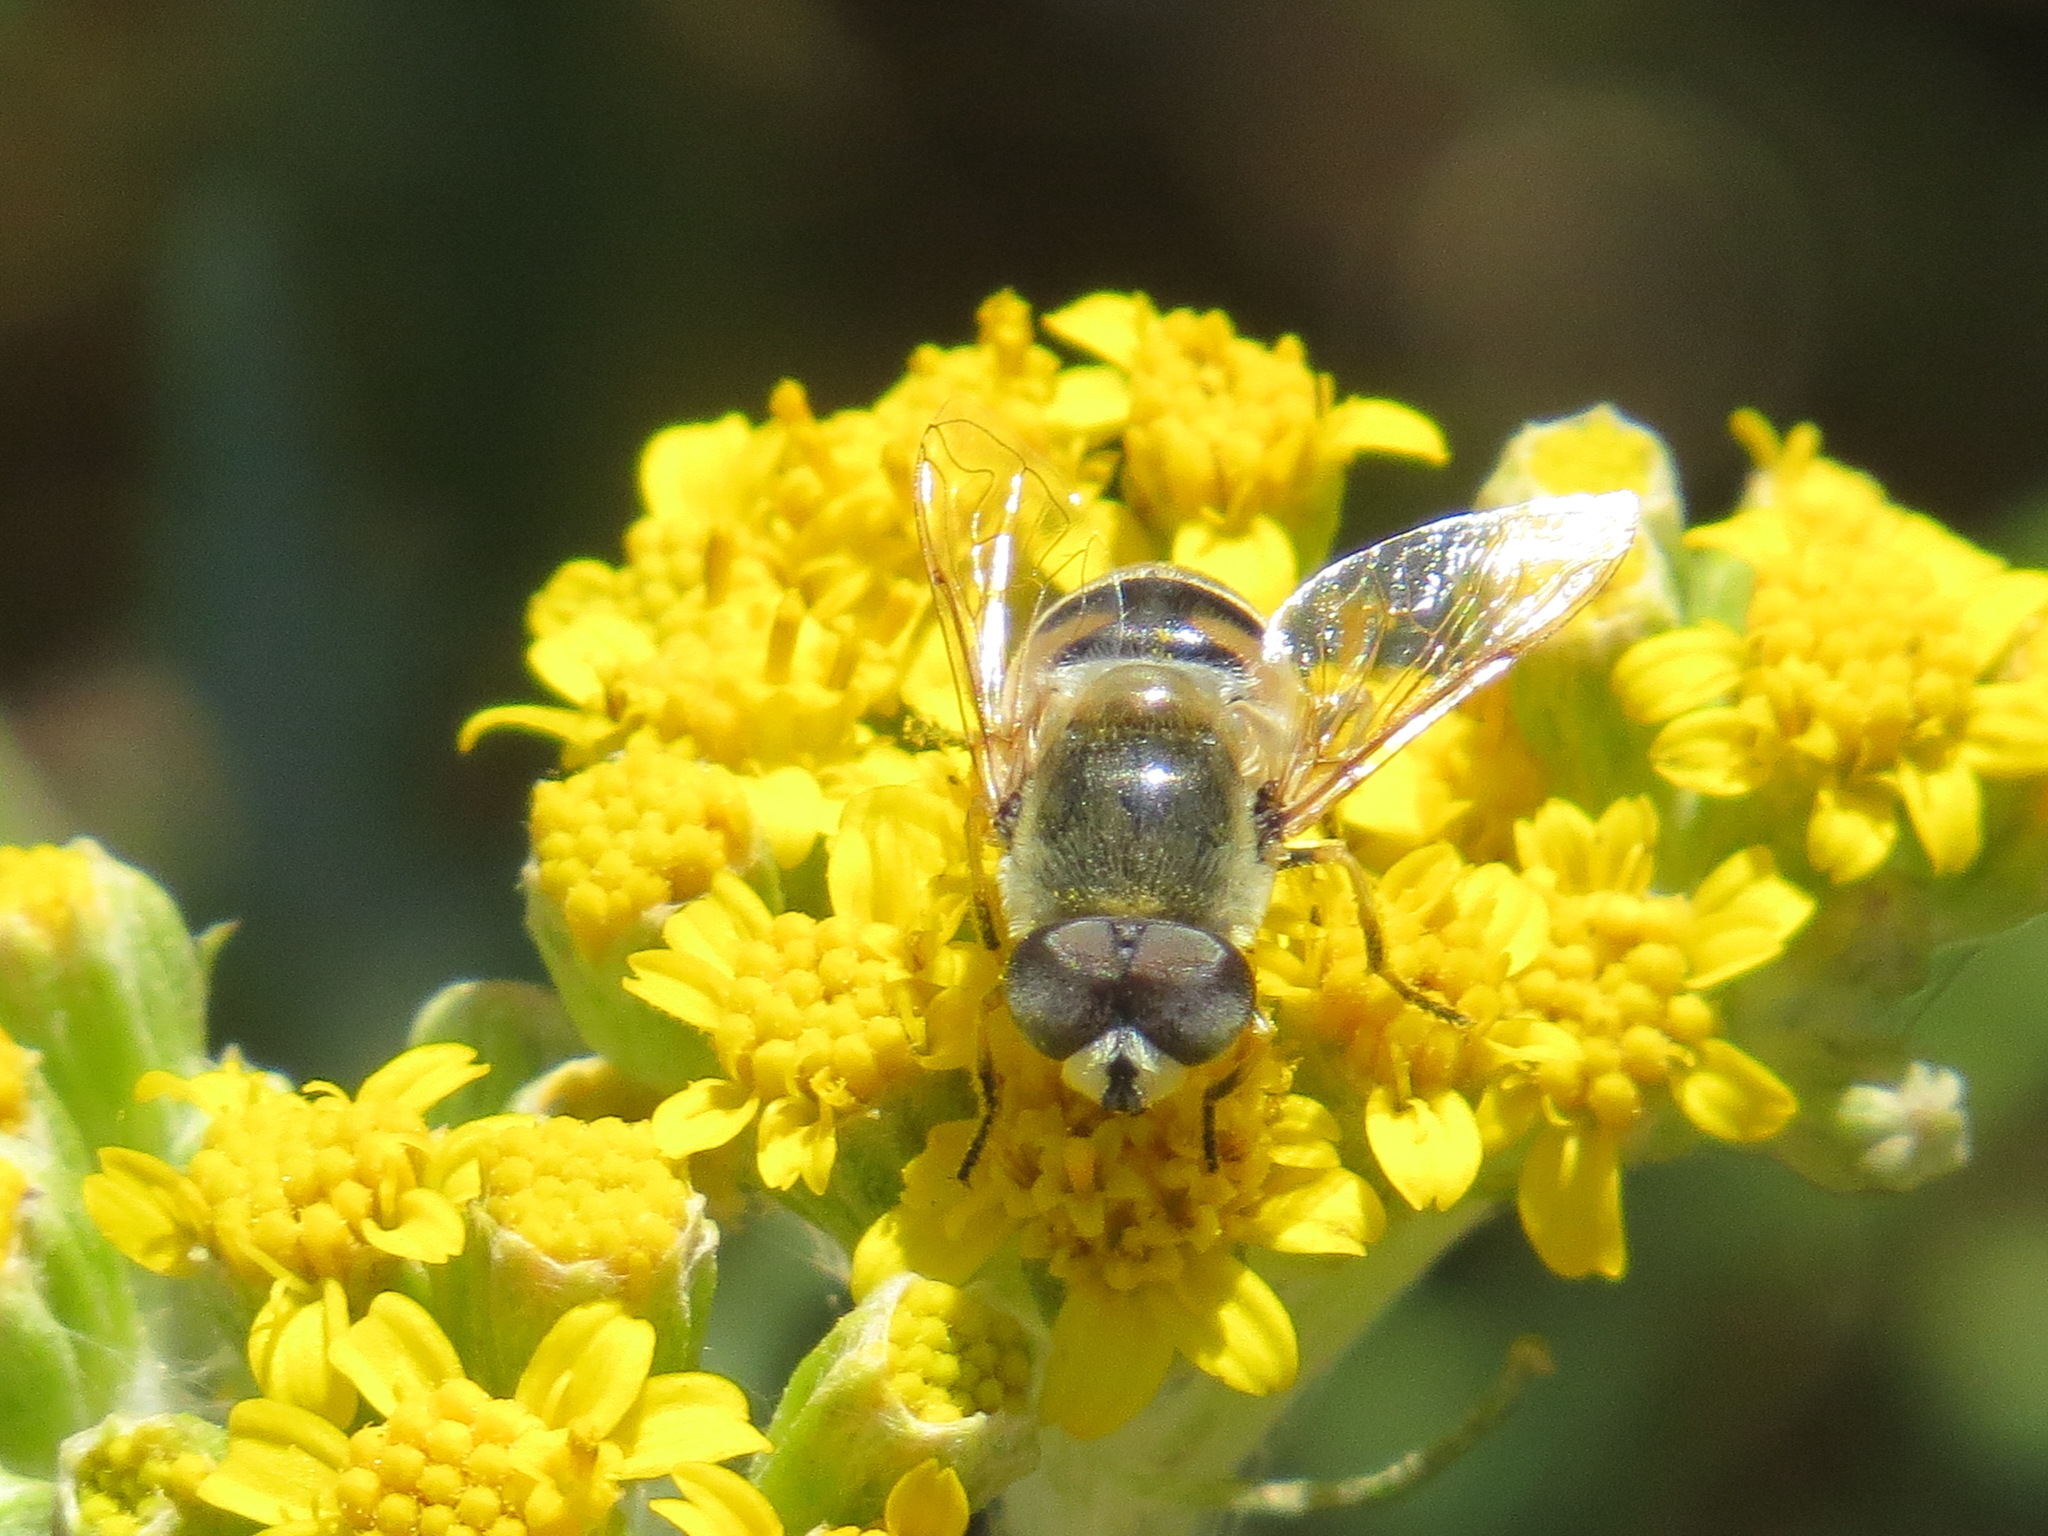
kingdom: Animalia
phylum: Arthropoda
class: Insecta
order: Diptera
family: Syrphidae
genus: Eristalis
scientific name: Eristalis stipator
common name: Yellow-shouldered drone fly
